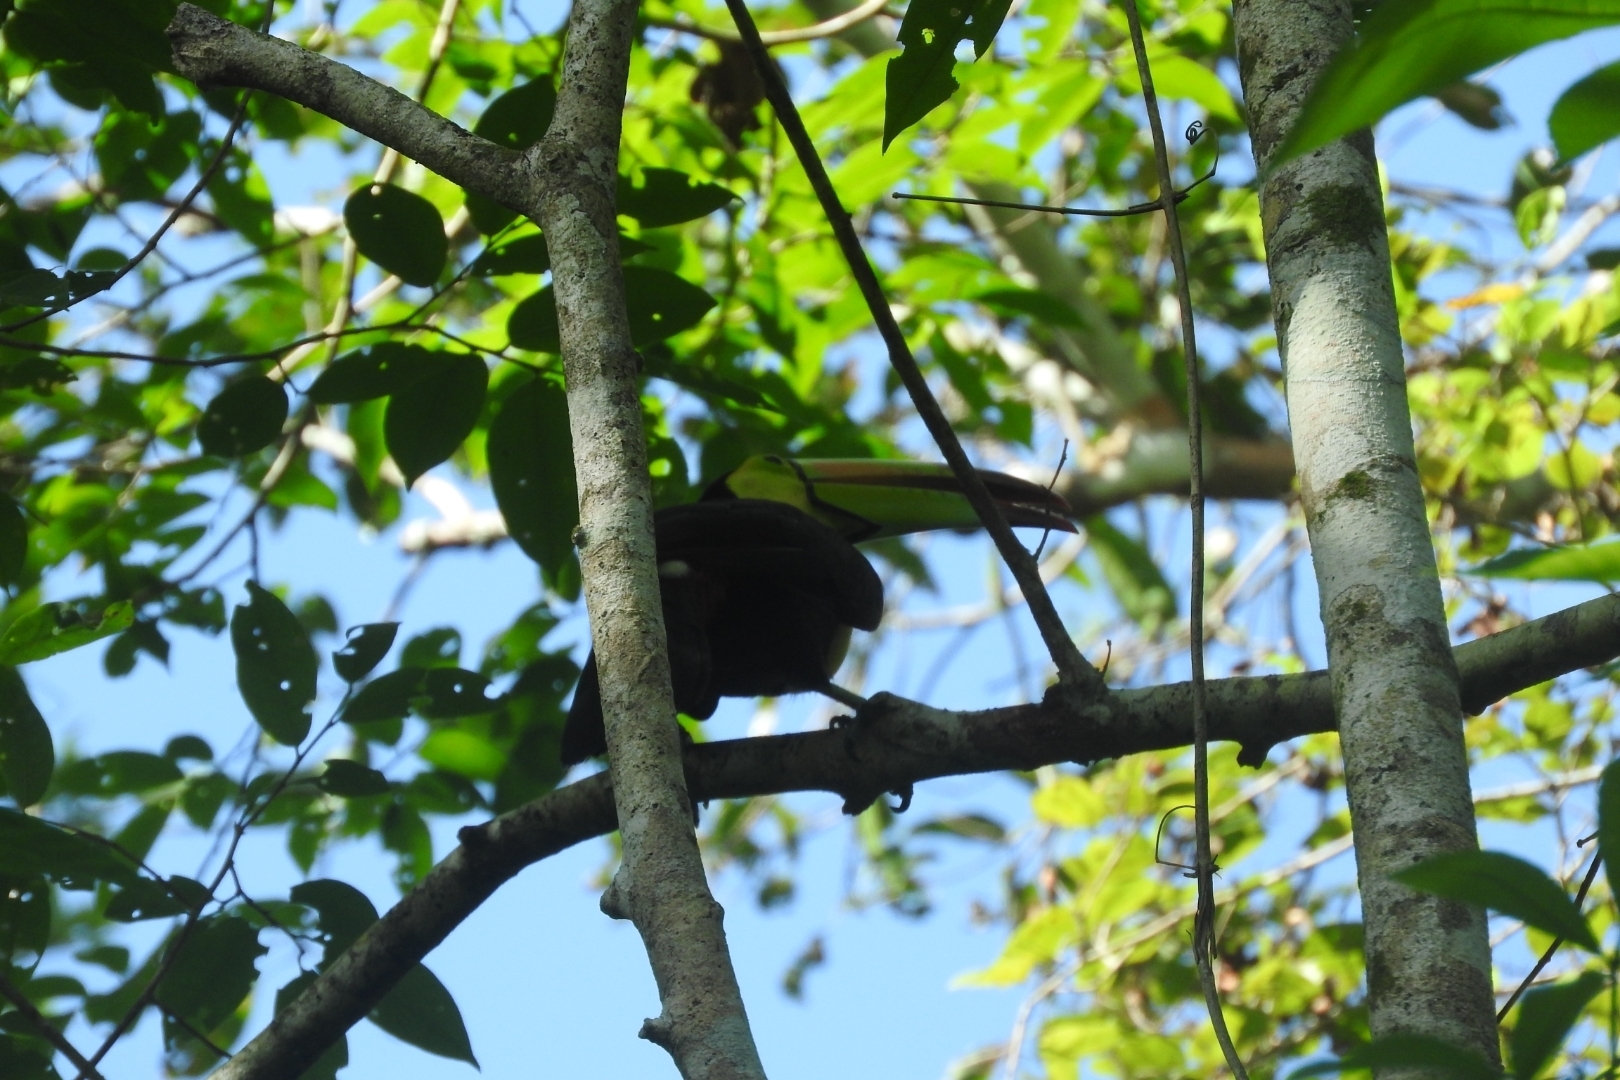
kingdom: Animalia
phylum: Chordata
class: Aves
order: Piciformes
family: Ramphastidae
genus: Ramphastos
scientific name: Ramphastos sulfuratus
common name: Keel-billed toucan
